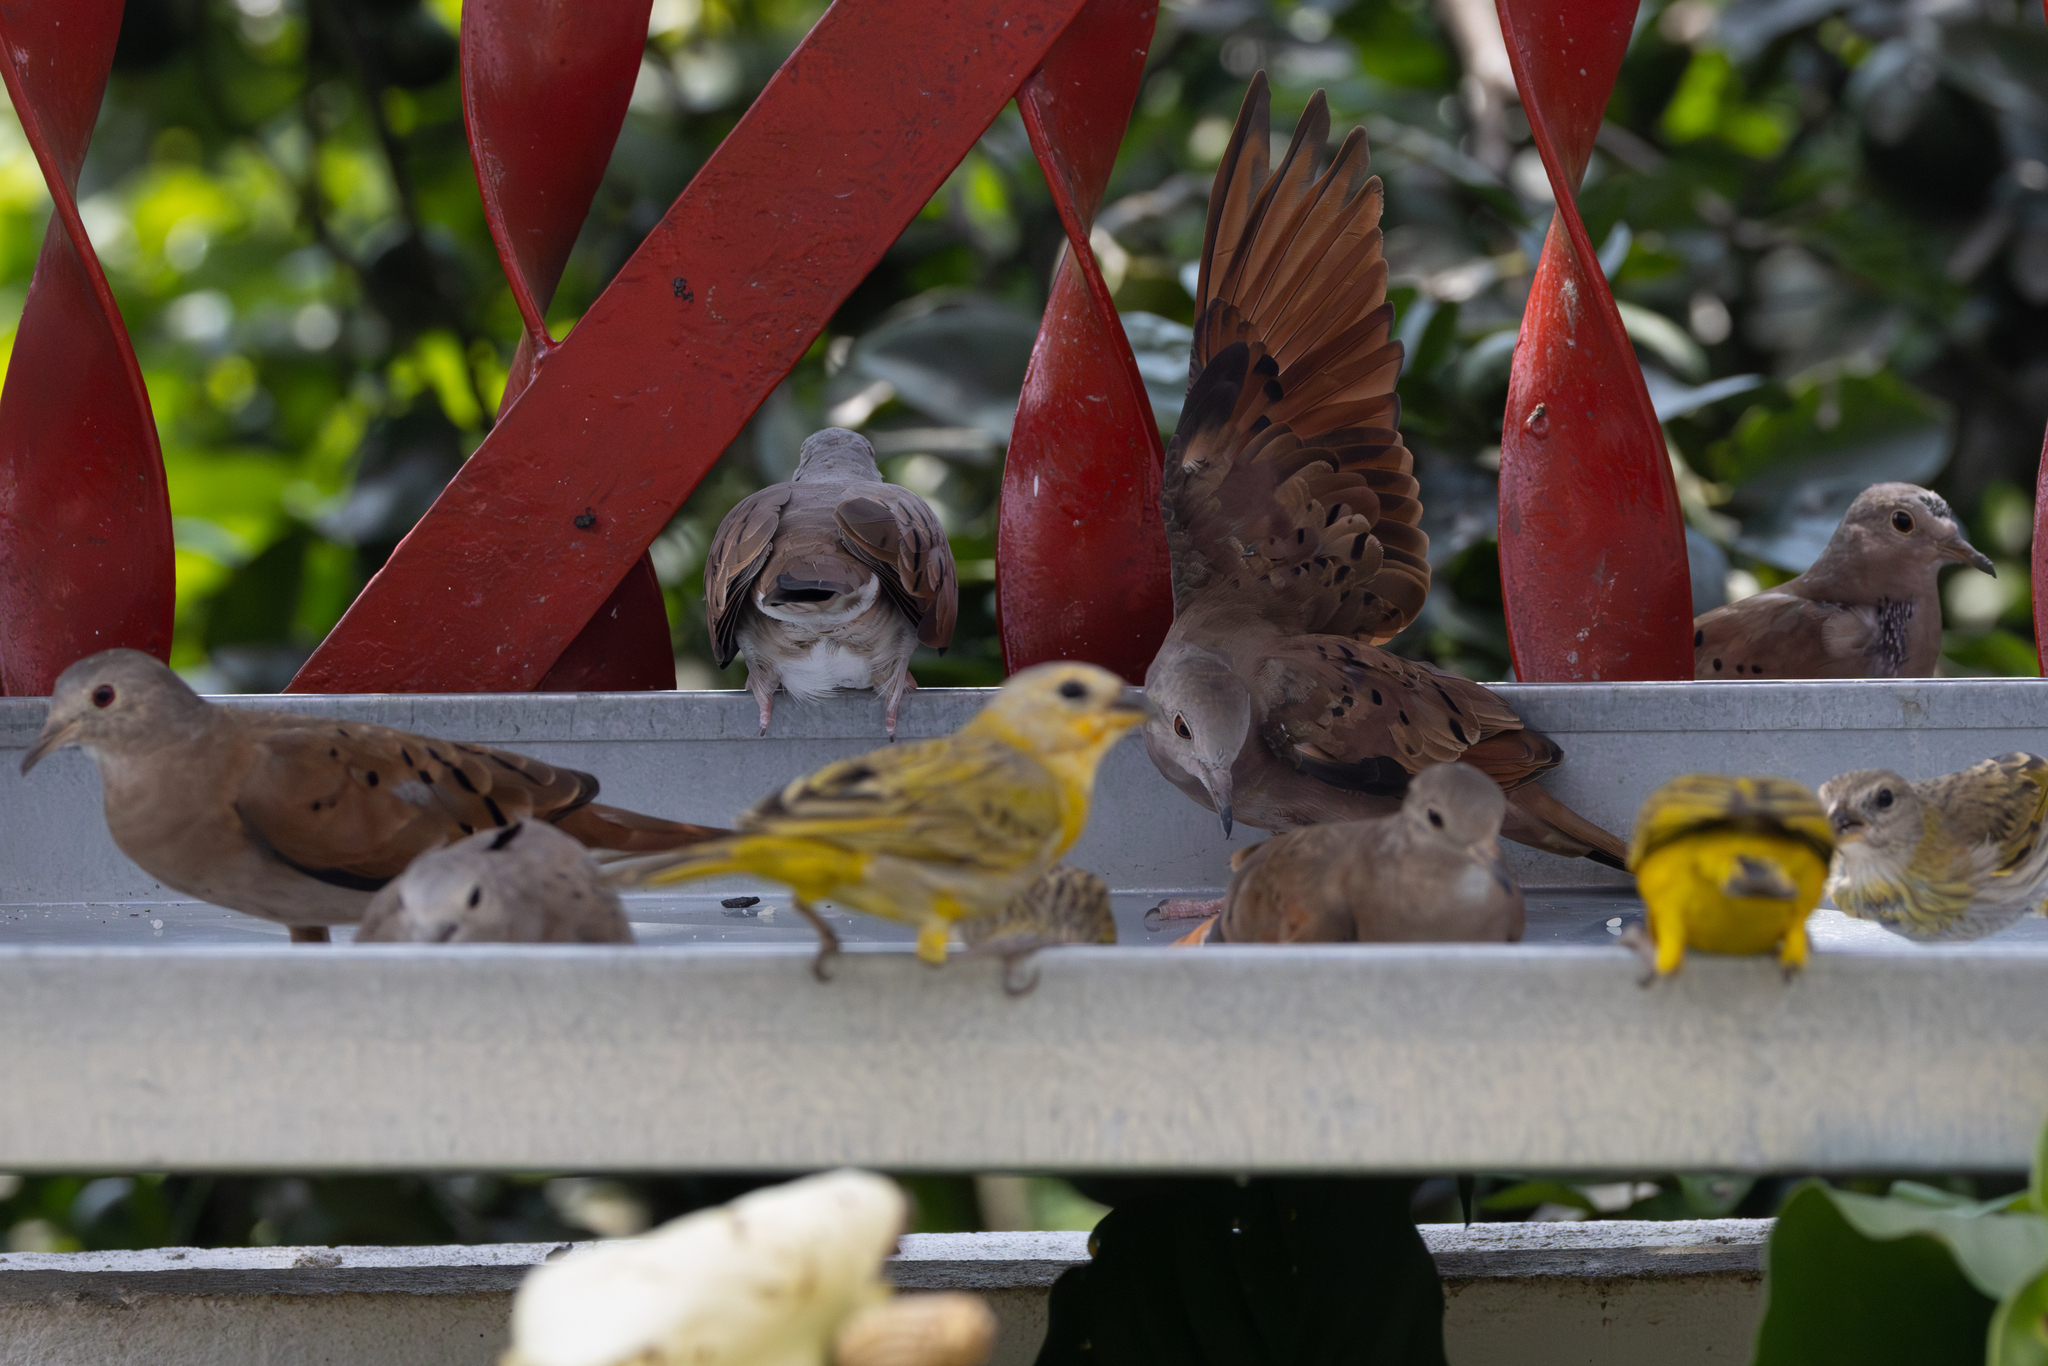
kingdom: Animalia
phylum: Chordata
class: Aves
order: Passeriformes
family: Thraupidae
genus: Sicalis
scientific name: Sicalis flaveola
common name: Saffron finch
